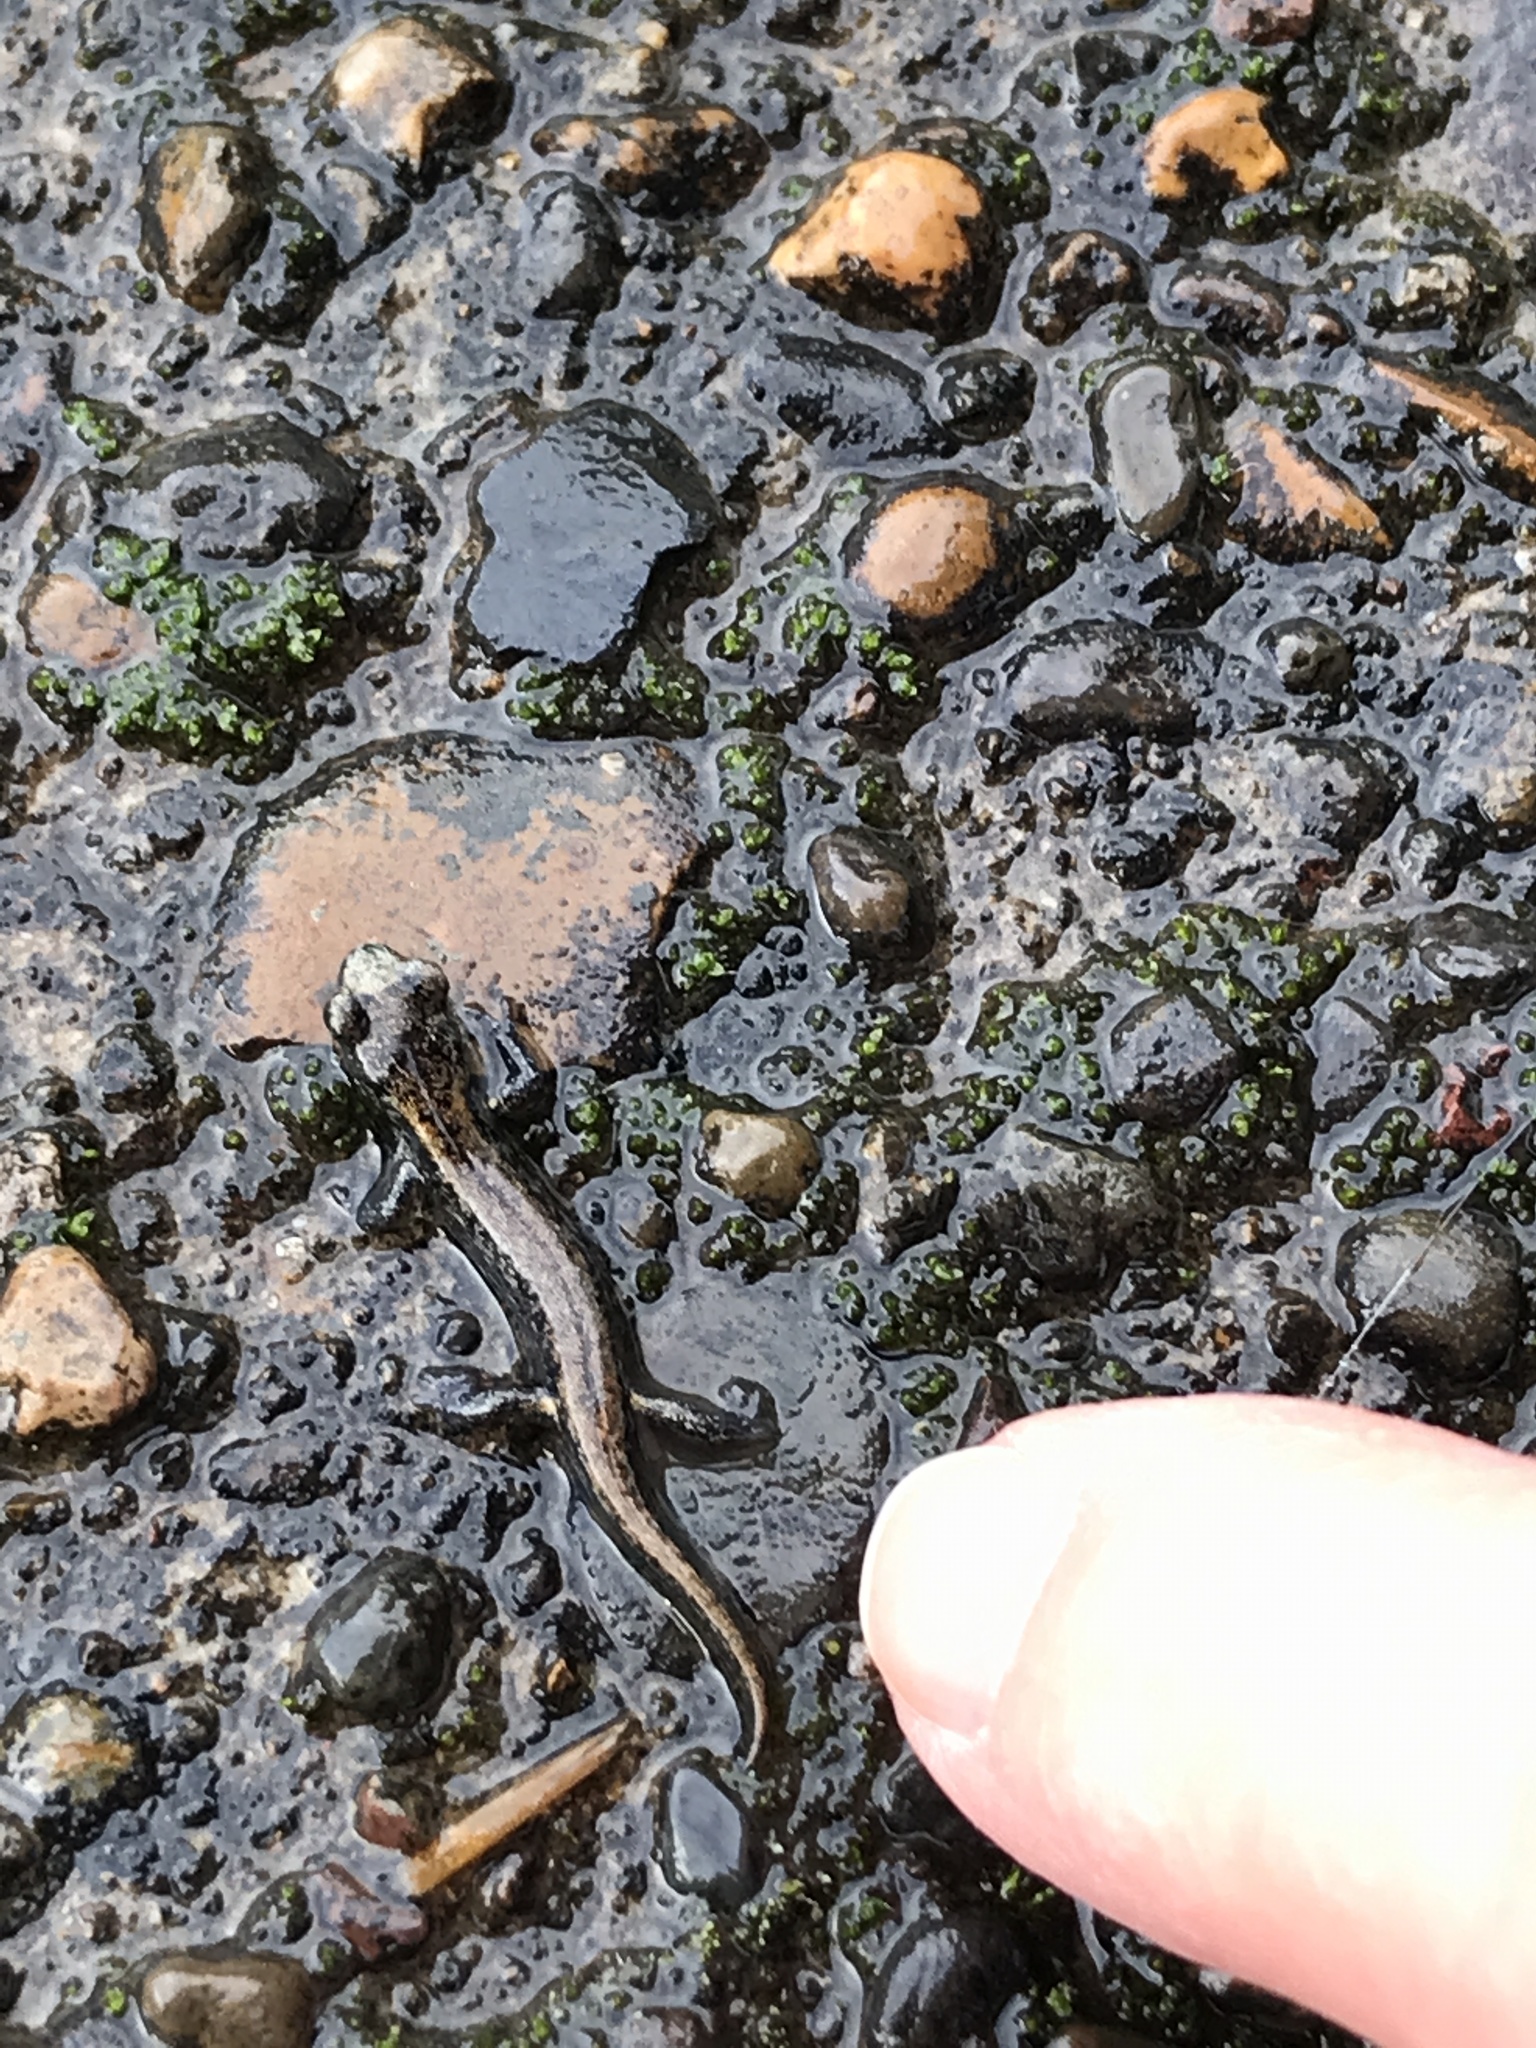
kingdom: Animalia
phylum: Chordata
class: Amphibia
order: Caudata
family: Plethodontidae
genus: Aneides
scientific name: Aneides ferreus
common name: Clouded salamander
